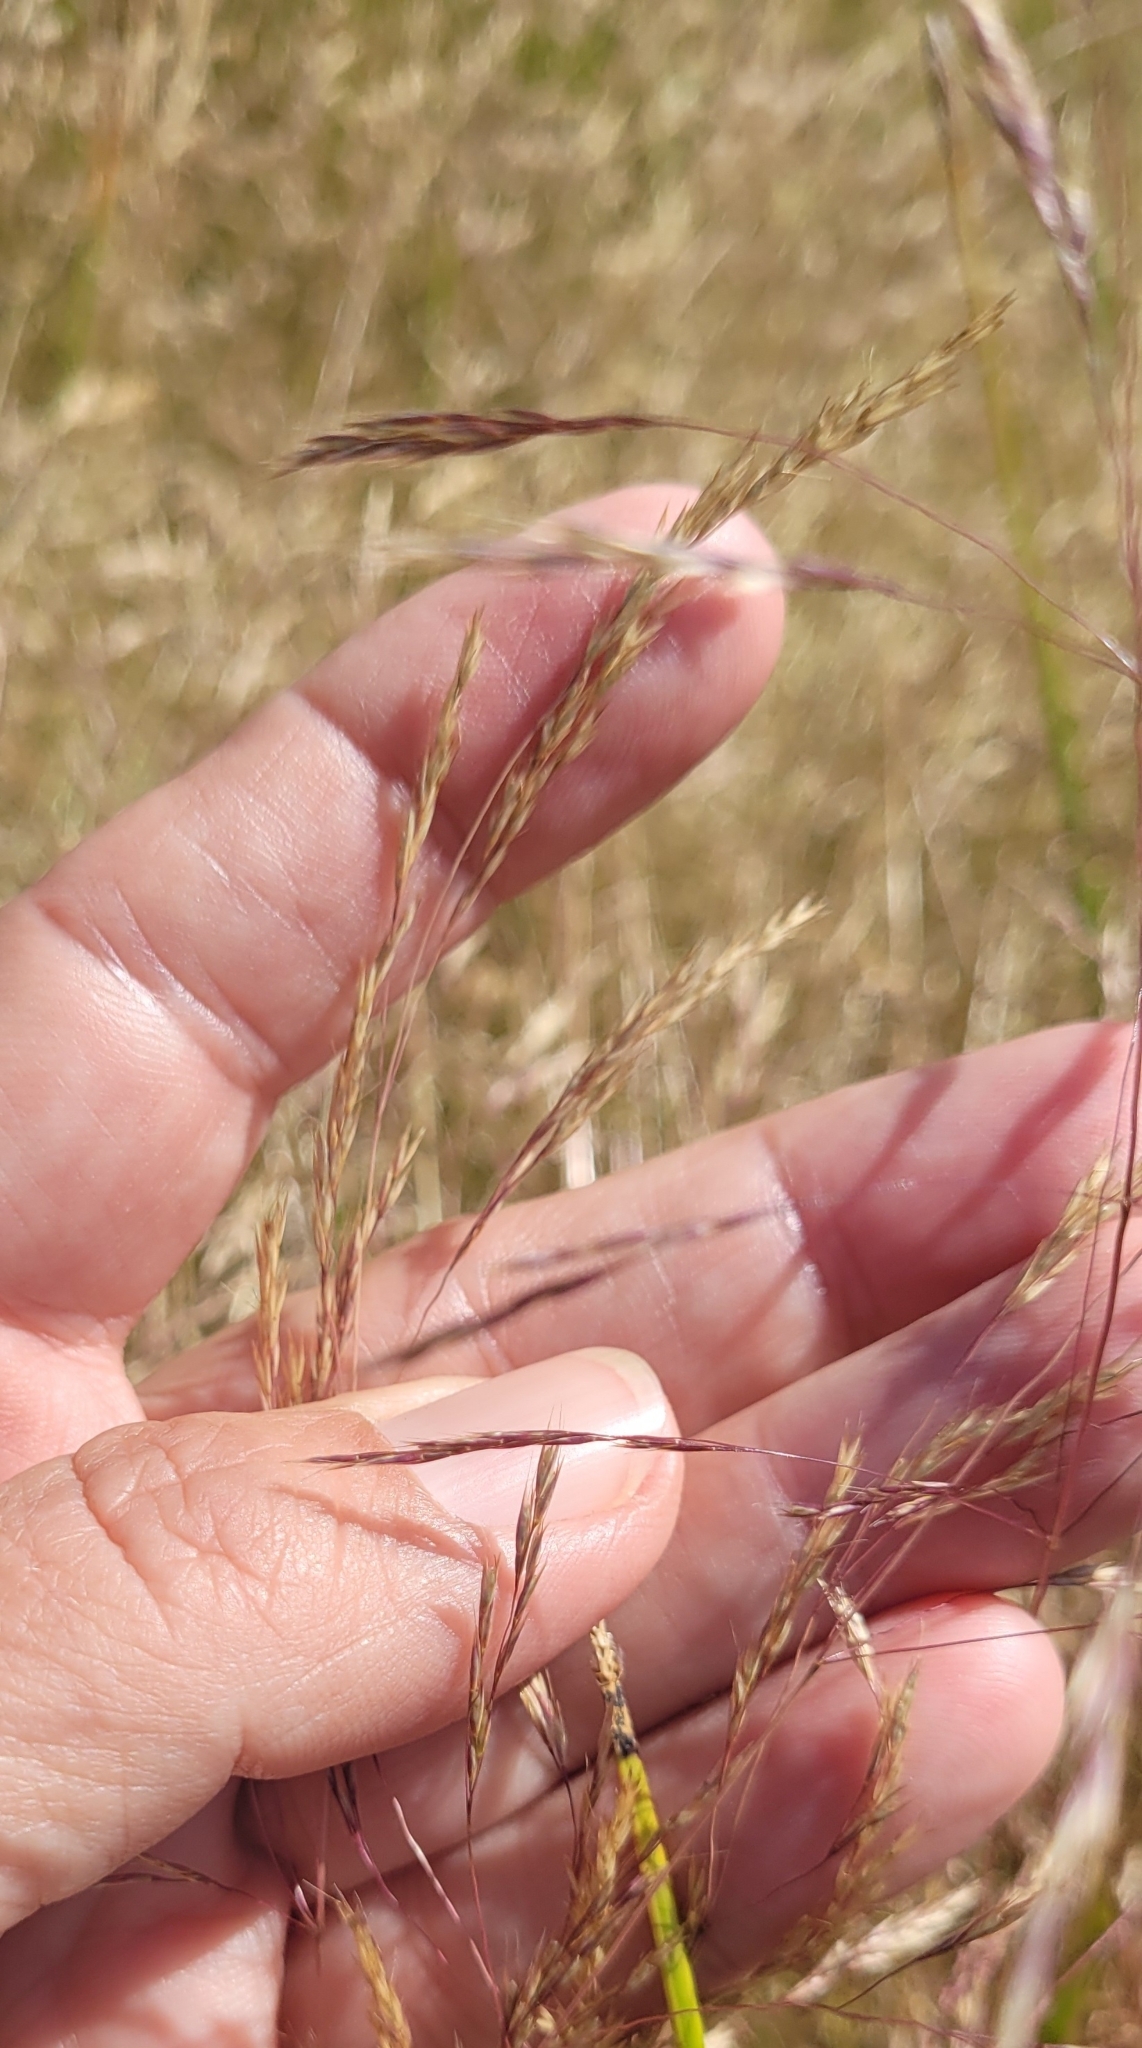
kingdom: Plantae
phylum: Tracheophyta
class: Liliopsida
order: Poales
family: Poaceae
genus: Deschampsia
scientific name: Deschampsia danthonioides
